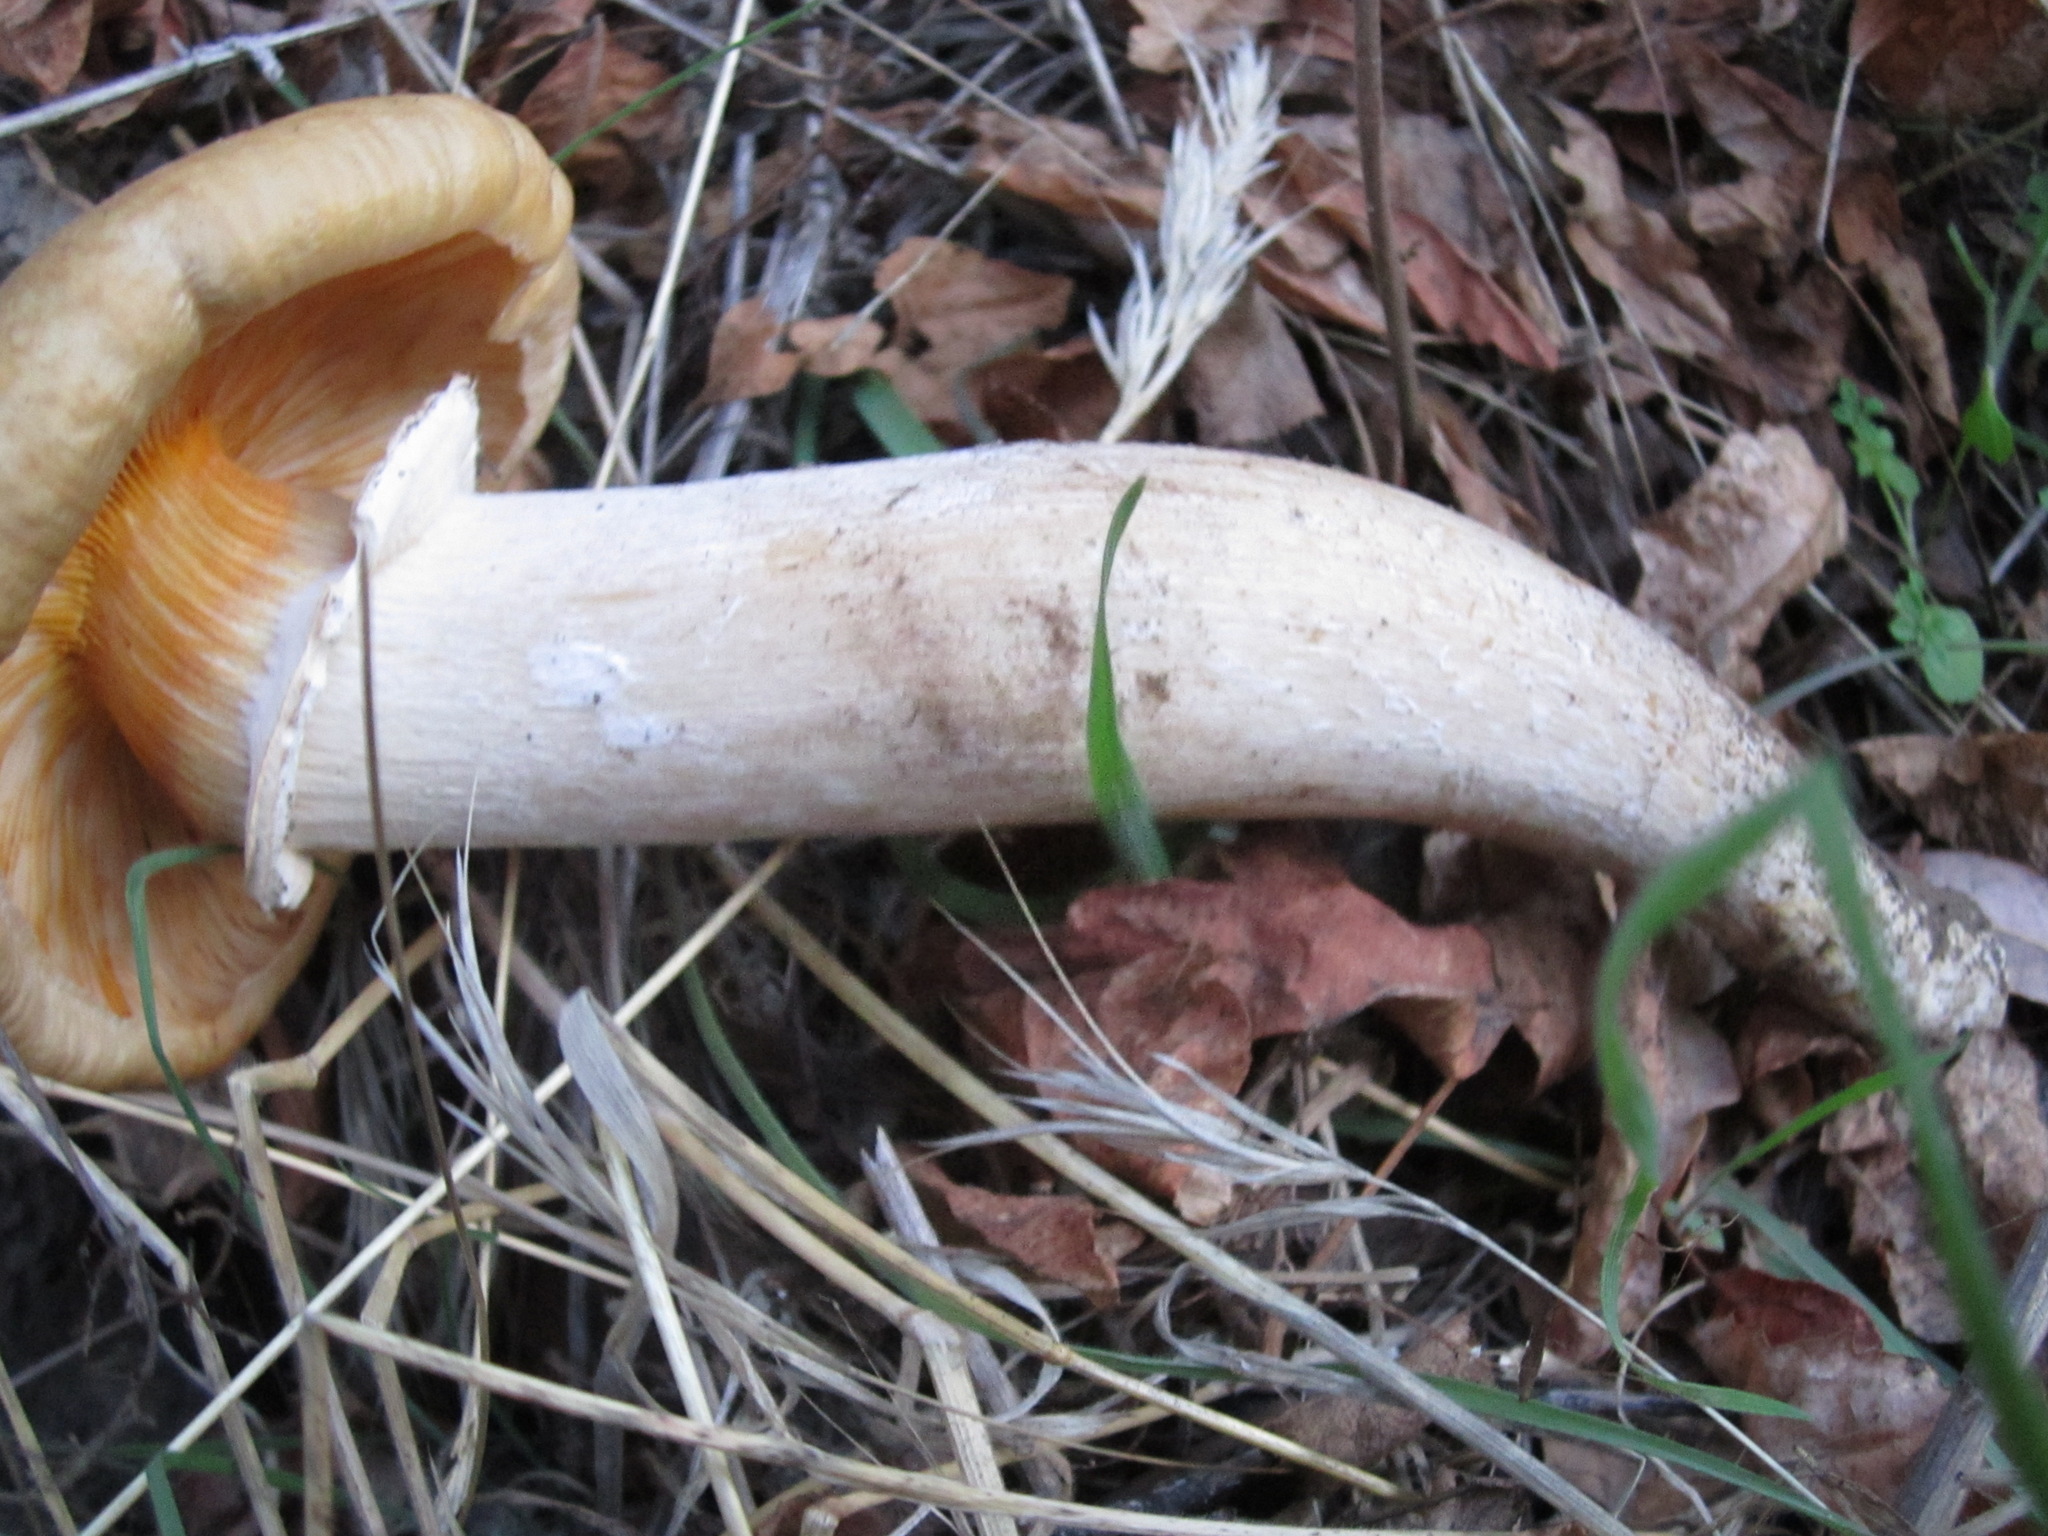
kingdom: Fungi
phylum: Basidiomycota
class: Agaricomycetes
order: Agaricales
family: Physalacriaceae
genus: Armillaria
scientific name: Armillaria mellea
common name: Honey fungus
